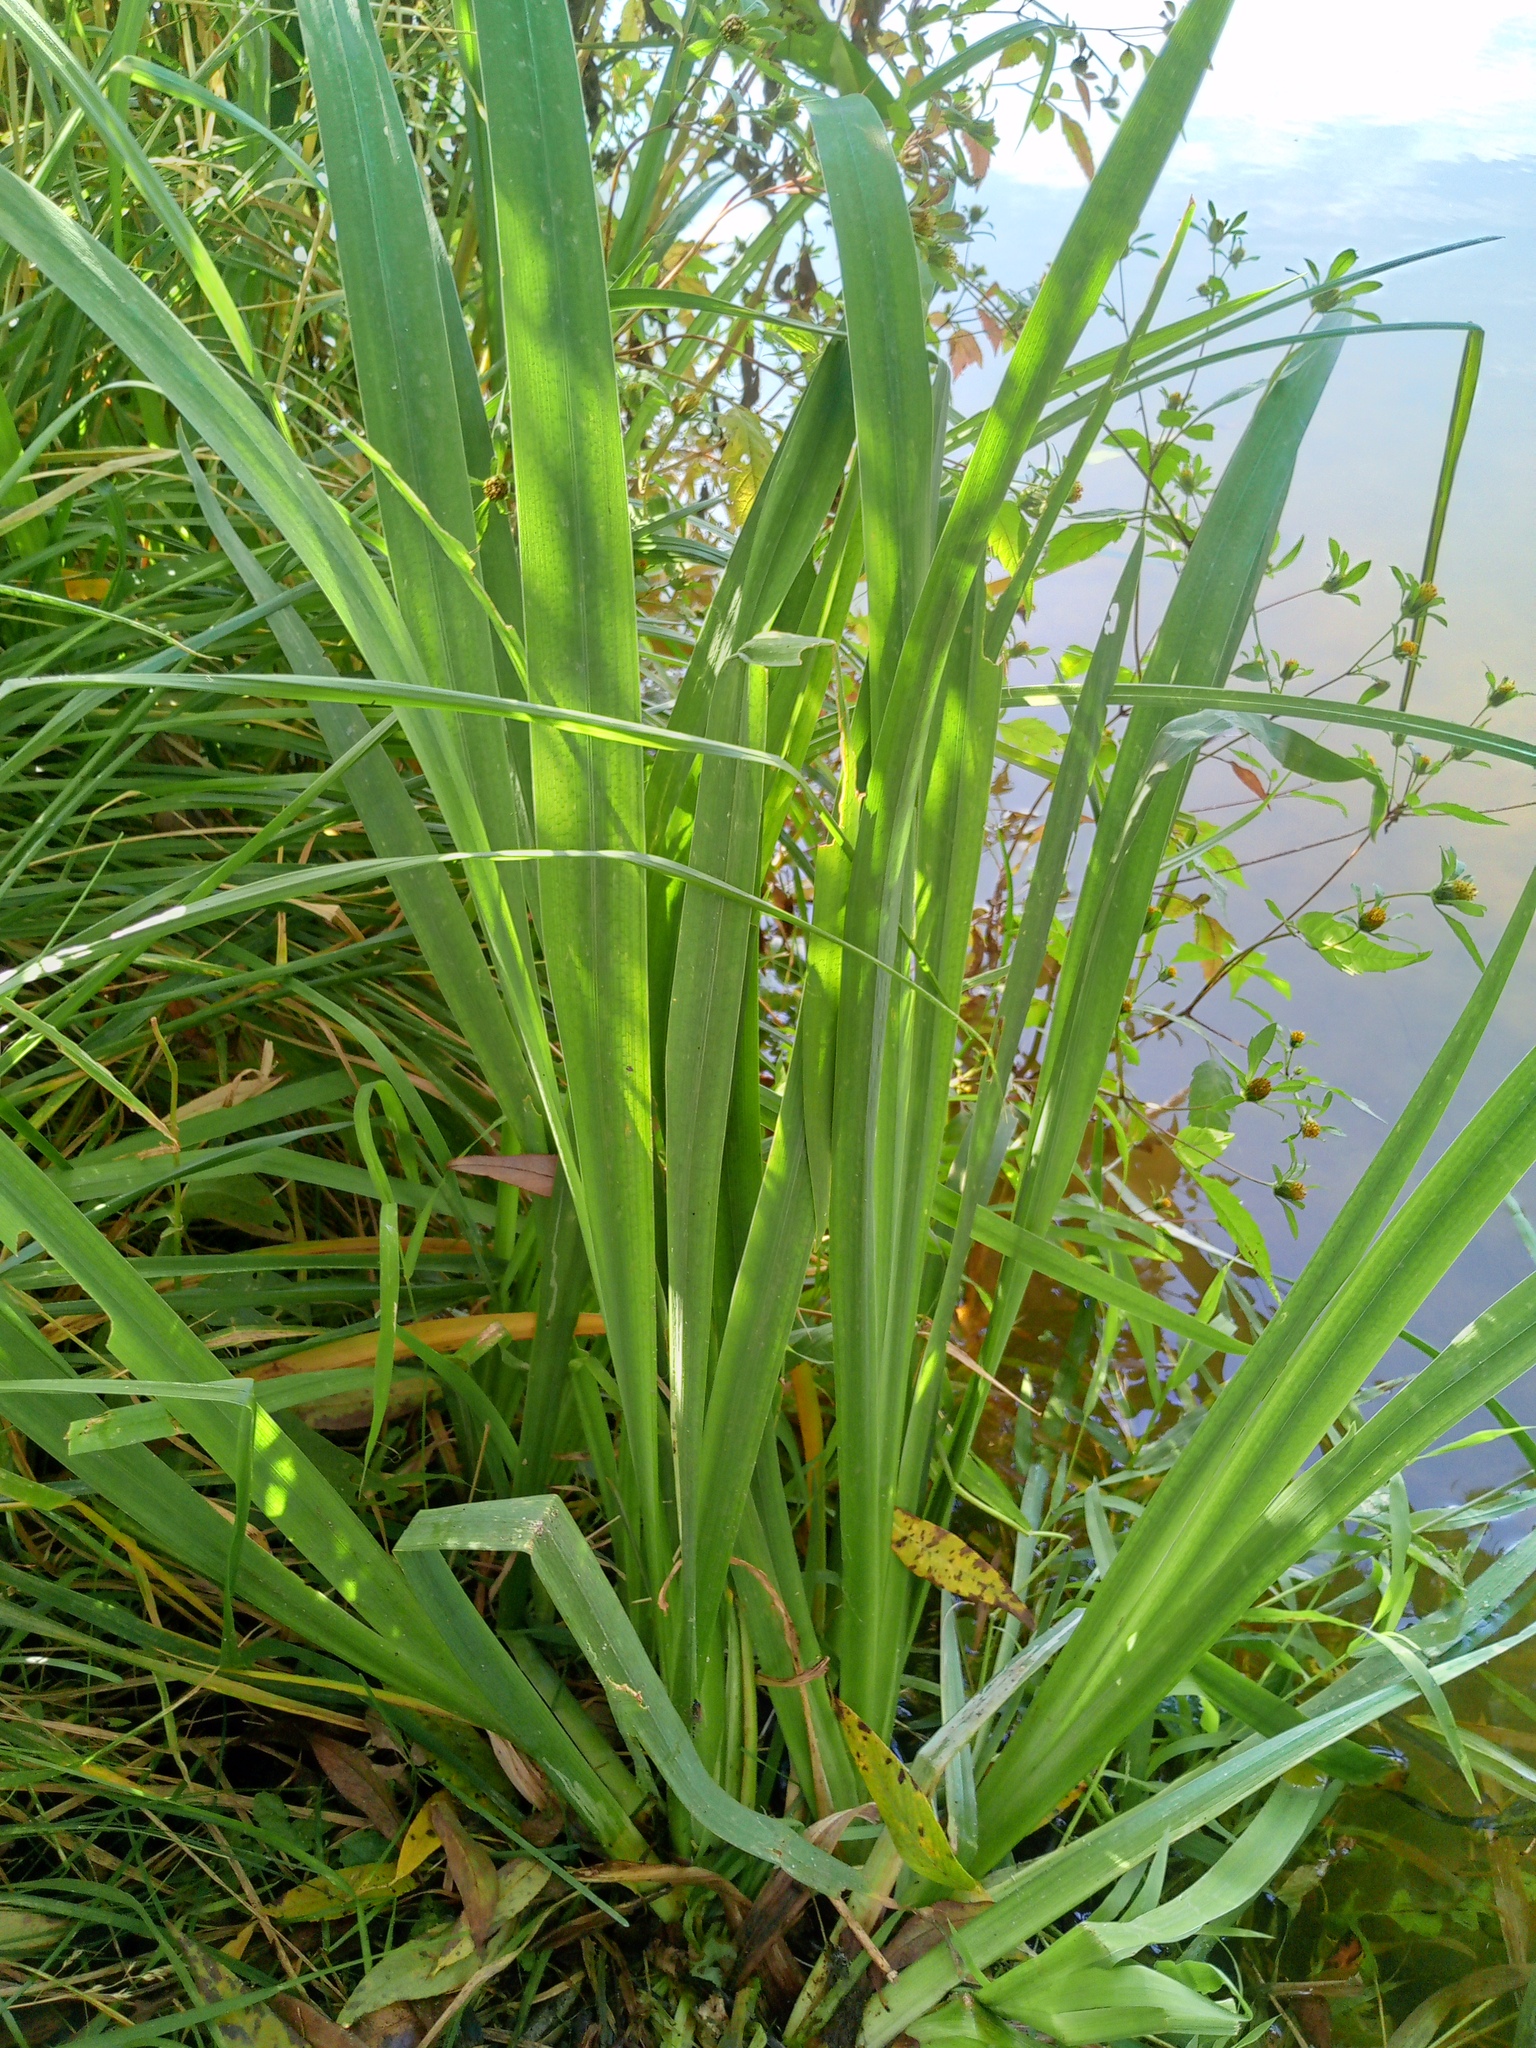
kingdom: Plantae
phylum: Tracheophyta
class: Liliopsida
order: Asparagales
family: Iridaceae
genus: Iris
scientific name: Iris pseudacorus
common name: Yellow flag
